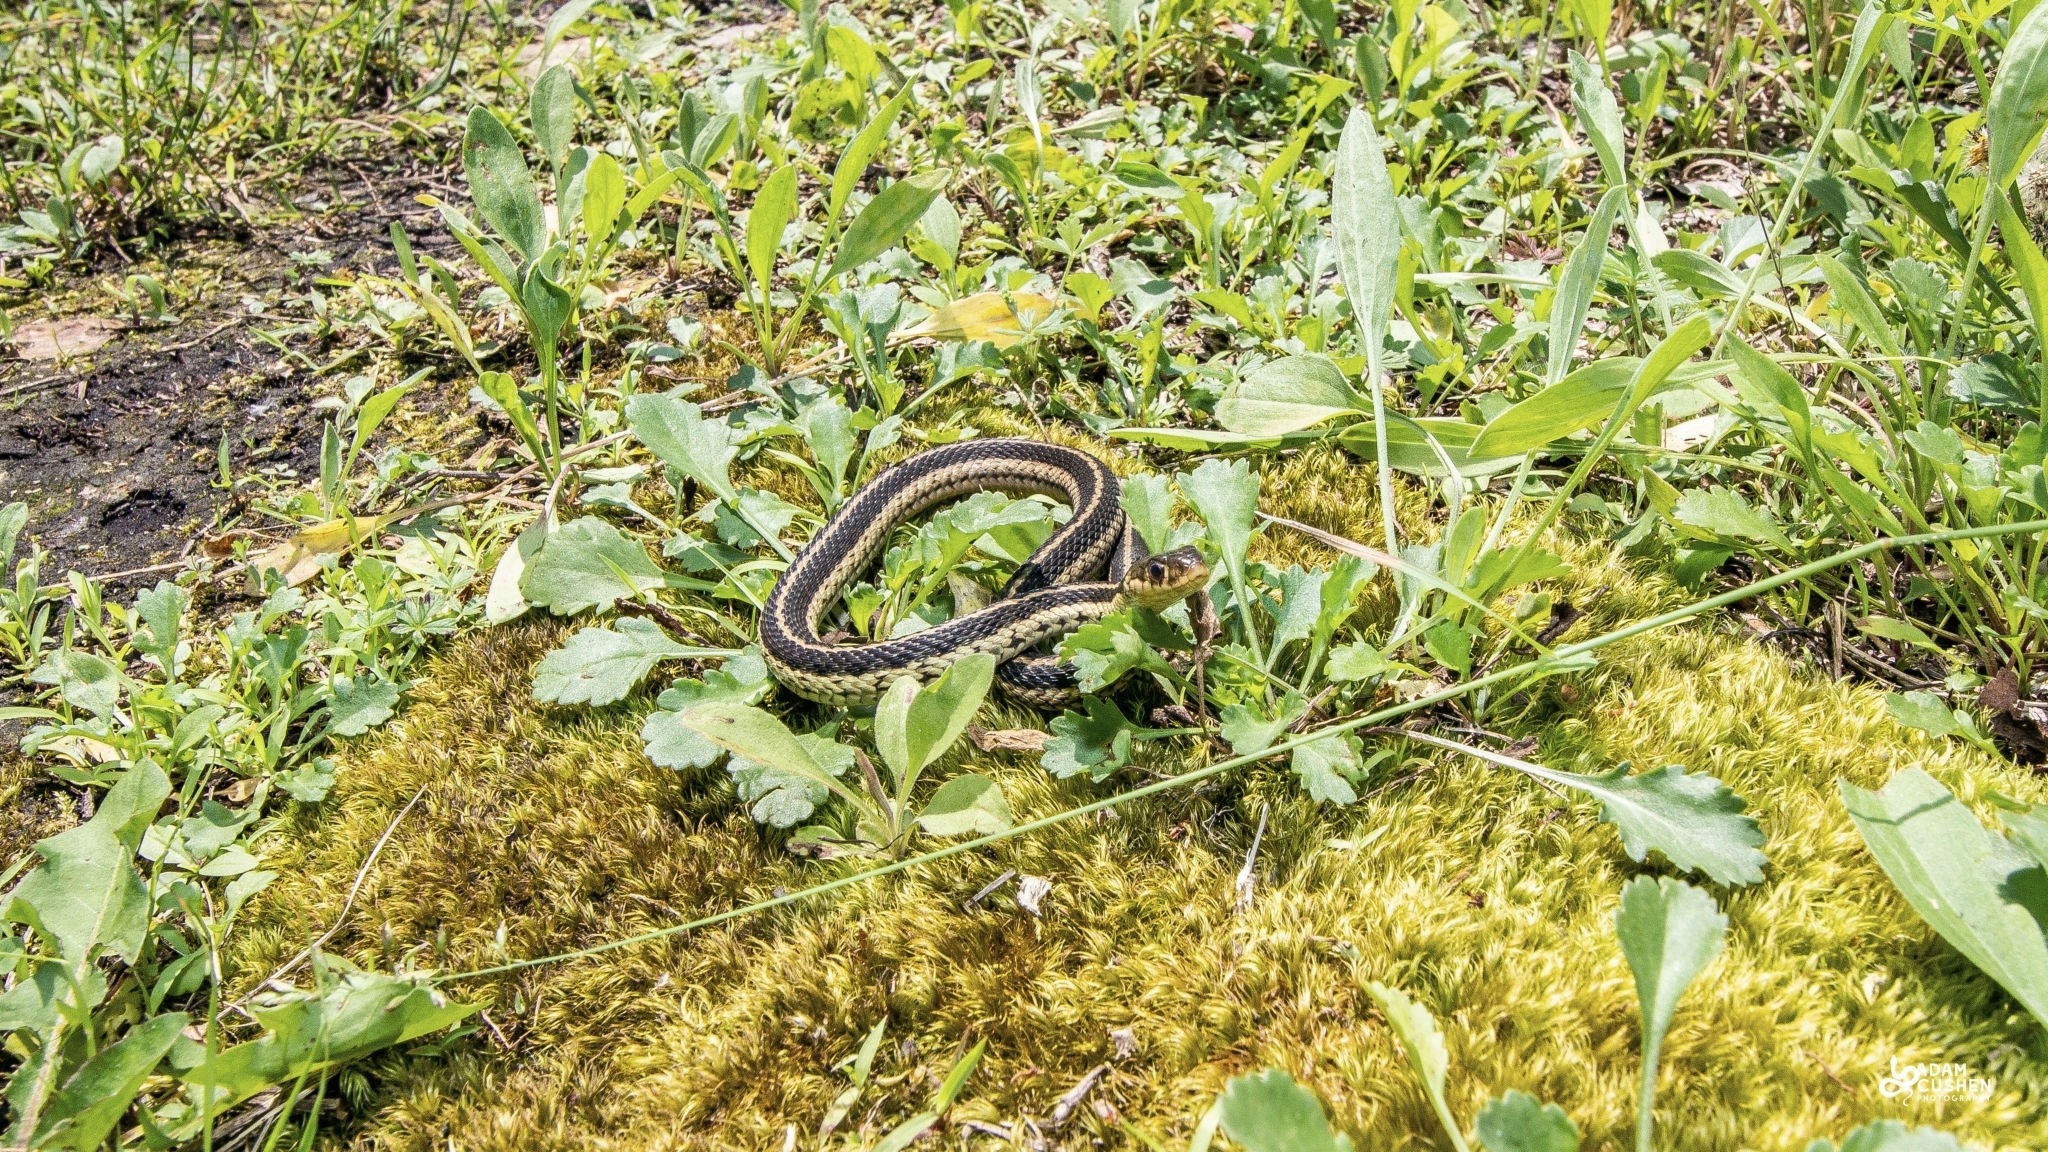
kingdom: Animalia
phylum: Chordata
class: Squamata
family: Colubridae
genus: Thamnophis
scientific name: Thamnophis sirtalis
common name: Common garter snake
